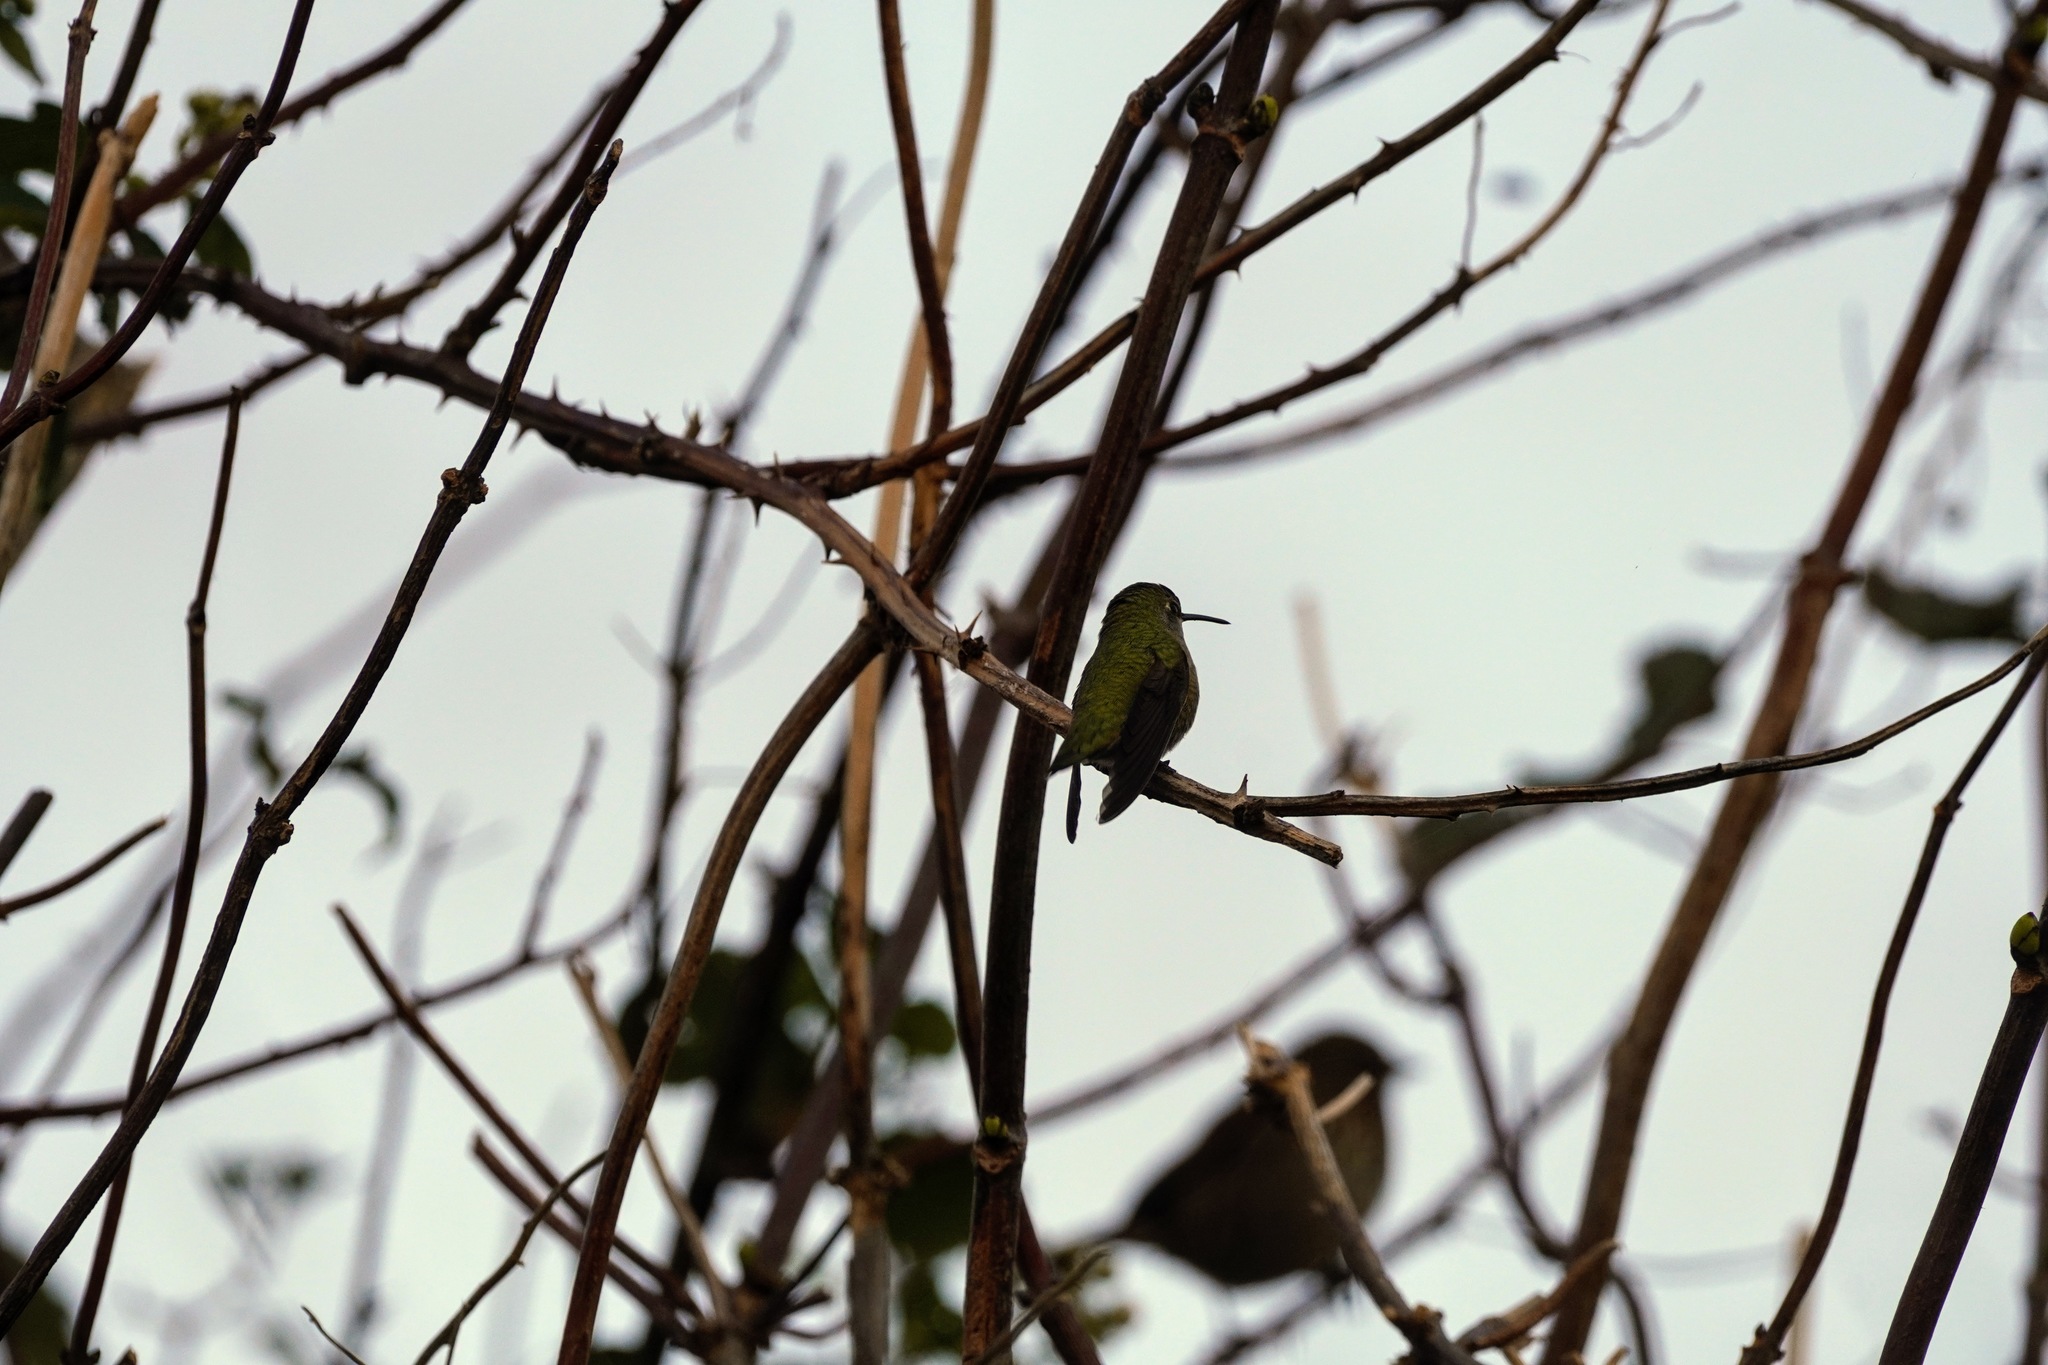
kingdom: Animalia
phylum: Chordata
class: Aves
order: Apodiformes
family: Trochilidae
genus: Calypte
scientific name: Calypte anna
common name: Anna's hummingbird
